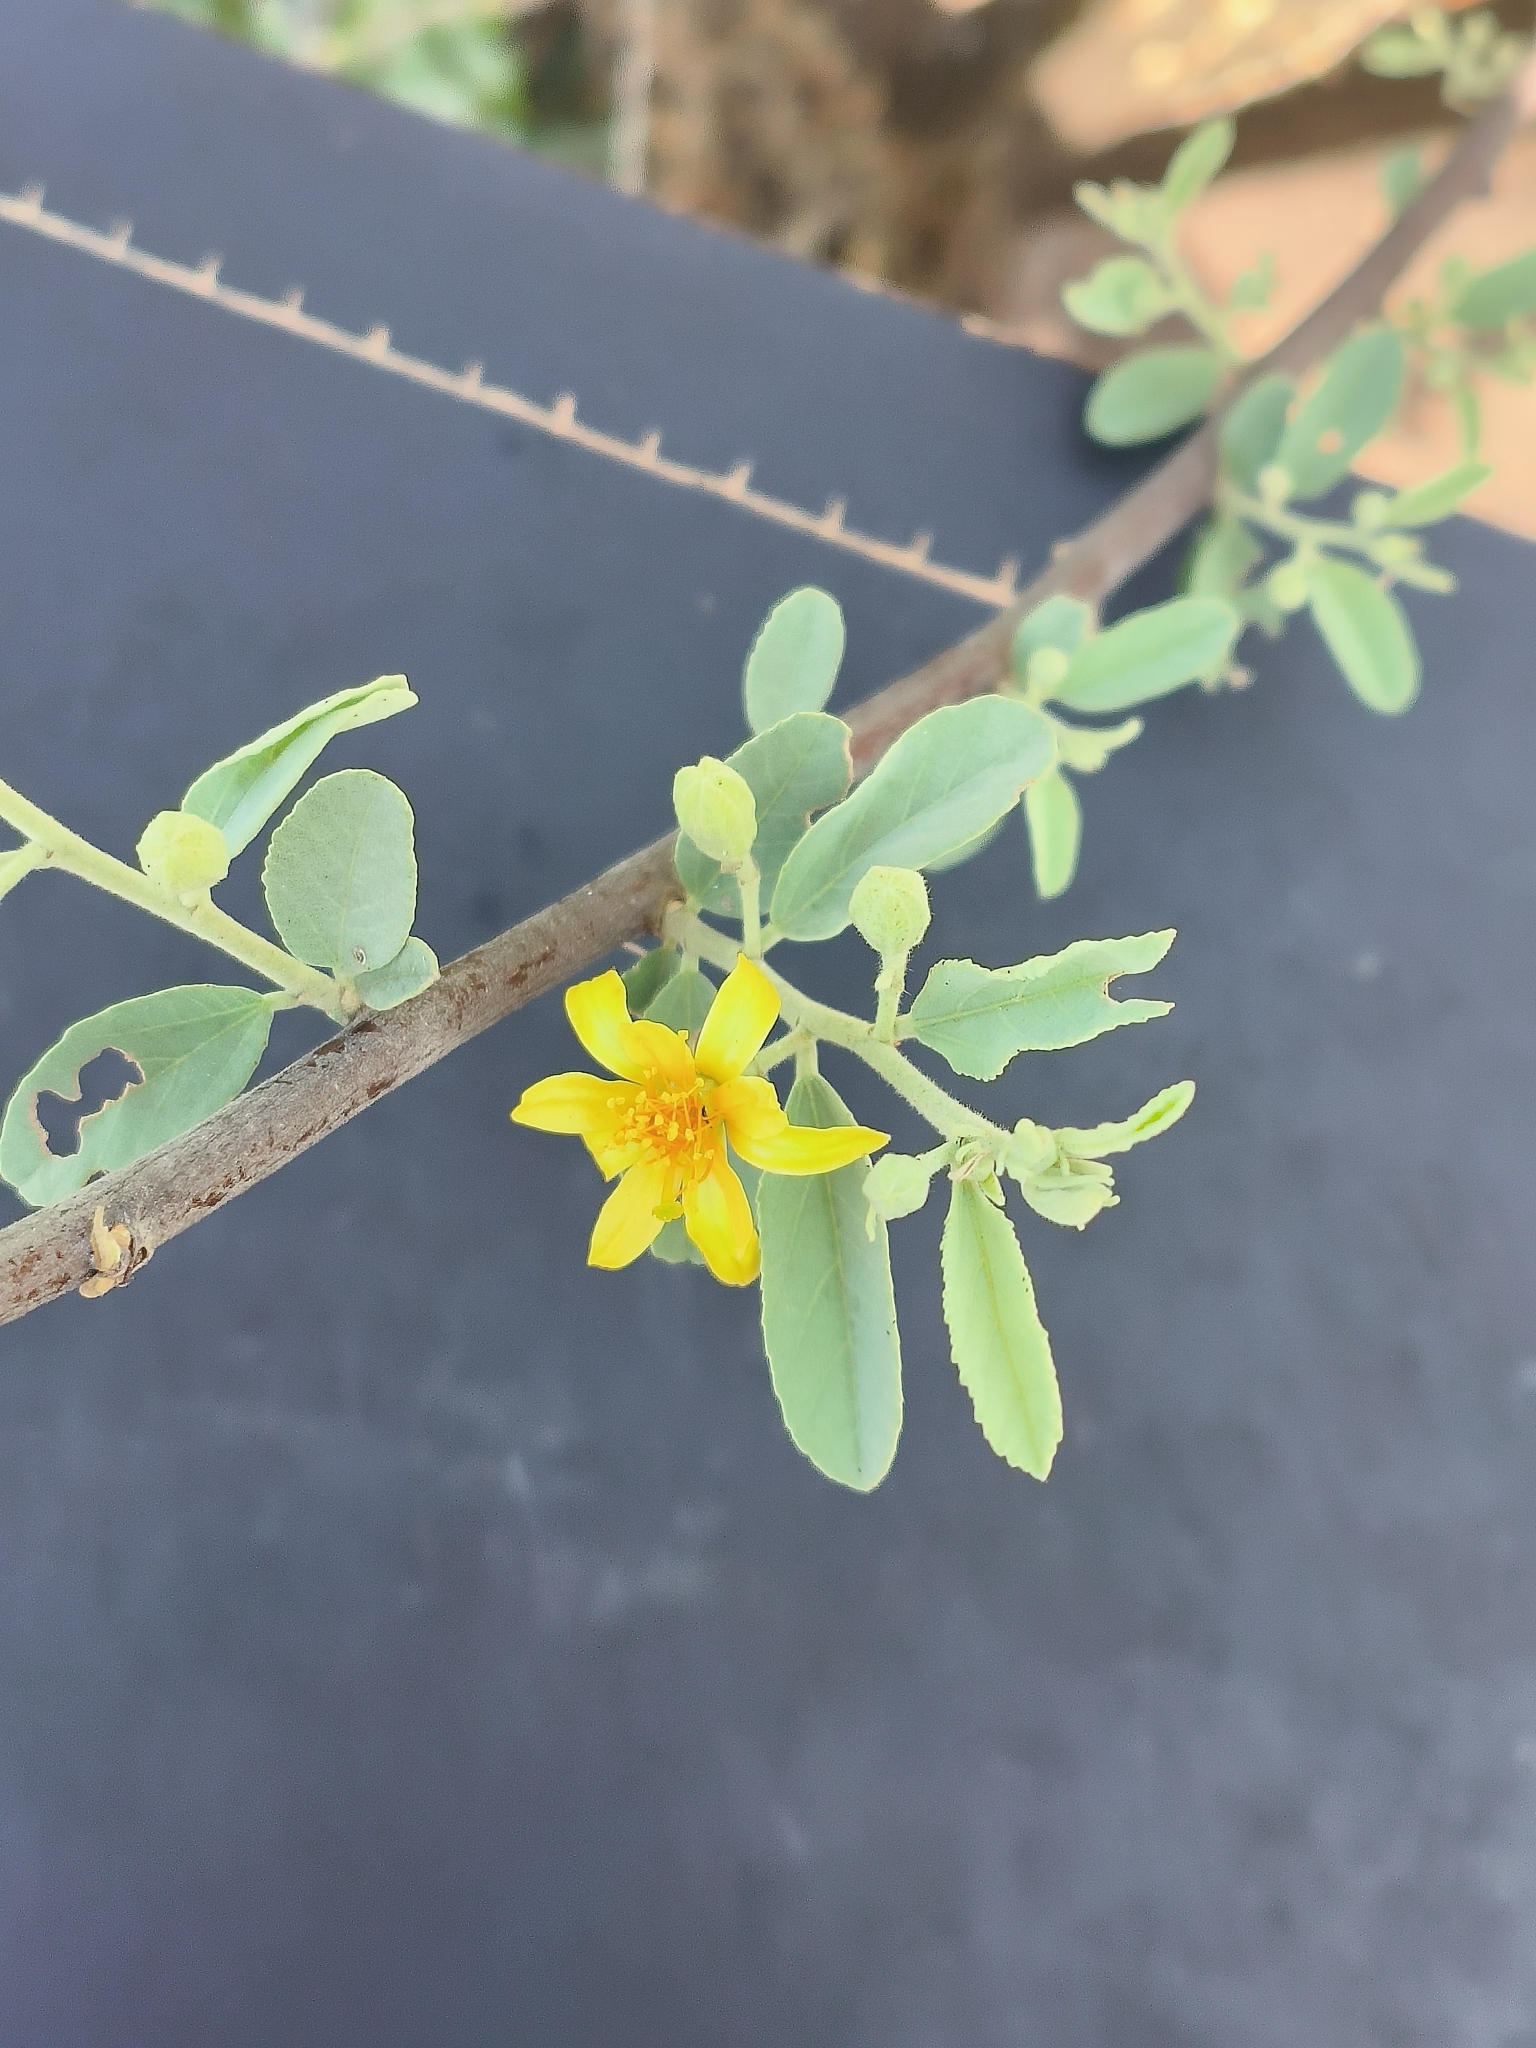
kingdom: Plantae
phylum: Tracheophyta
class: Magnoliopsida
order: Malvales
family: Malvaceae
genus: Grewia
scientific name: Grewia flava
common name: Brandy bush
